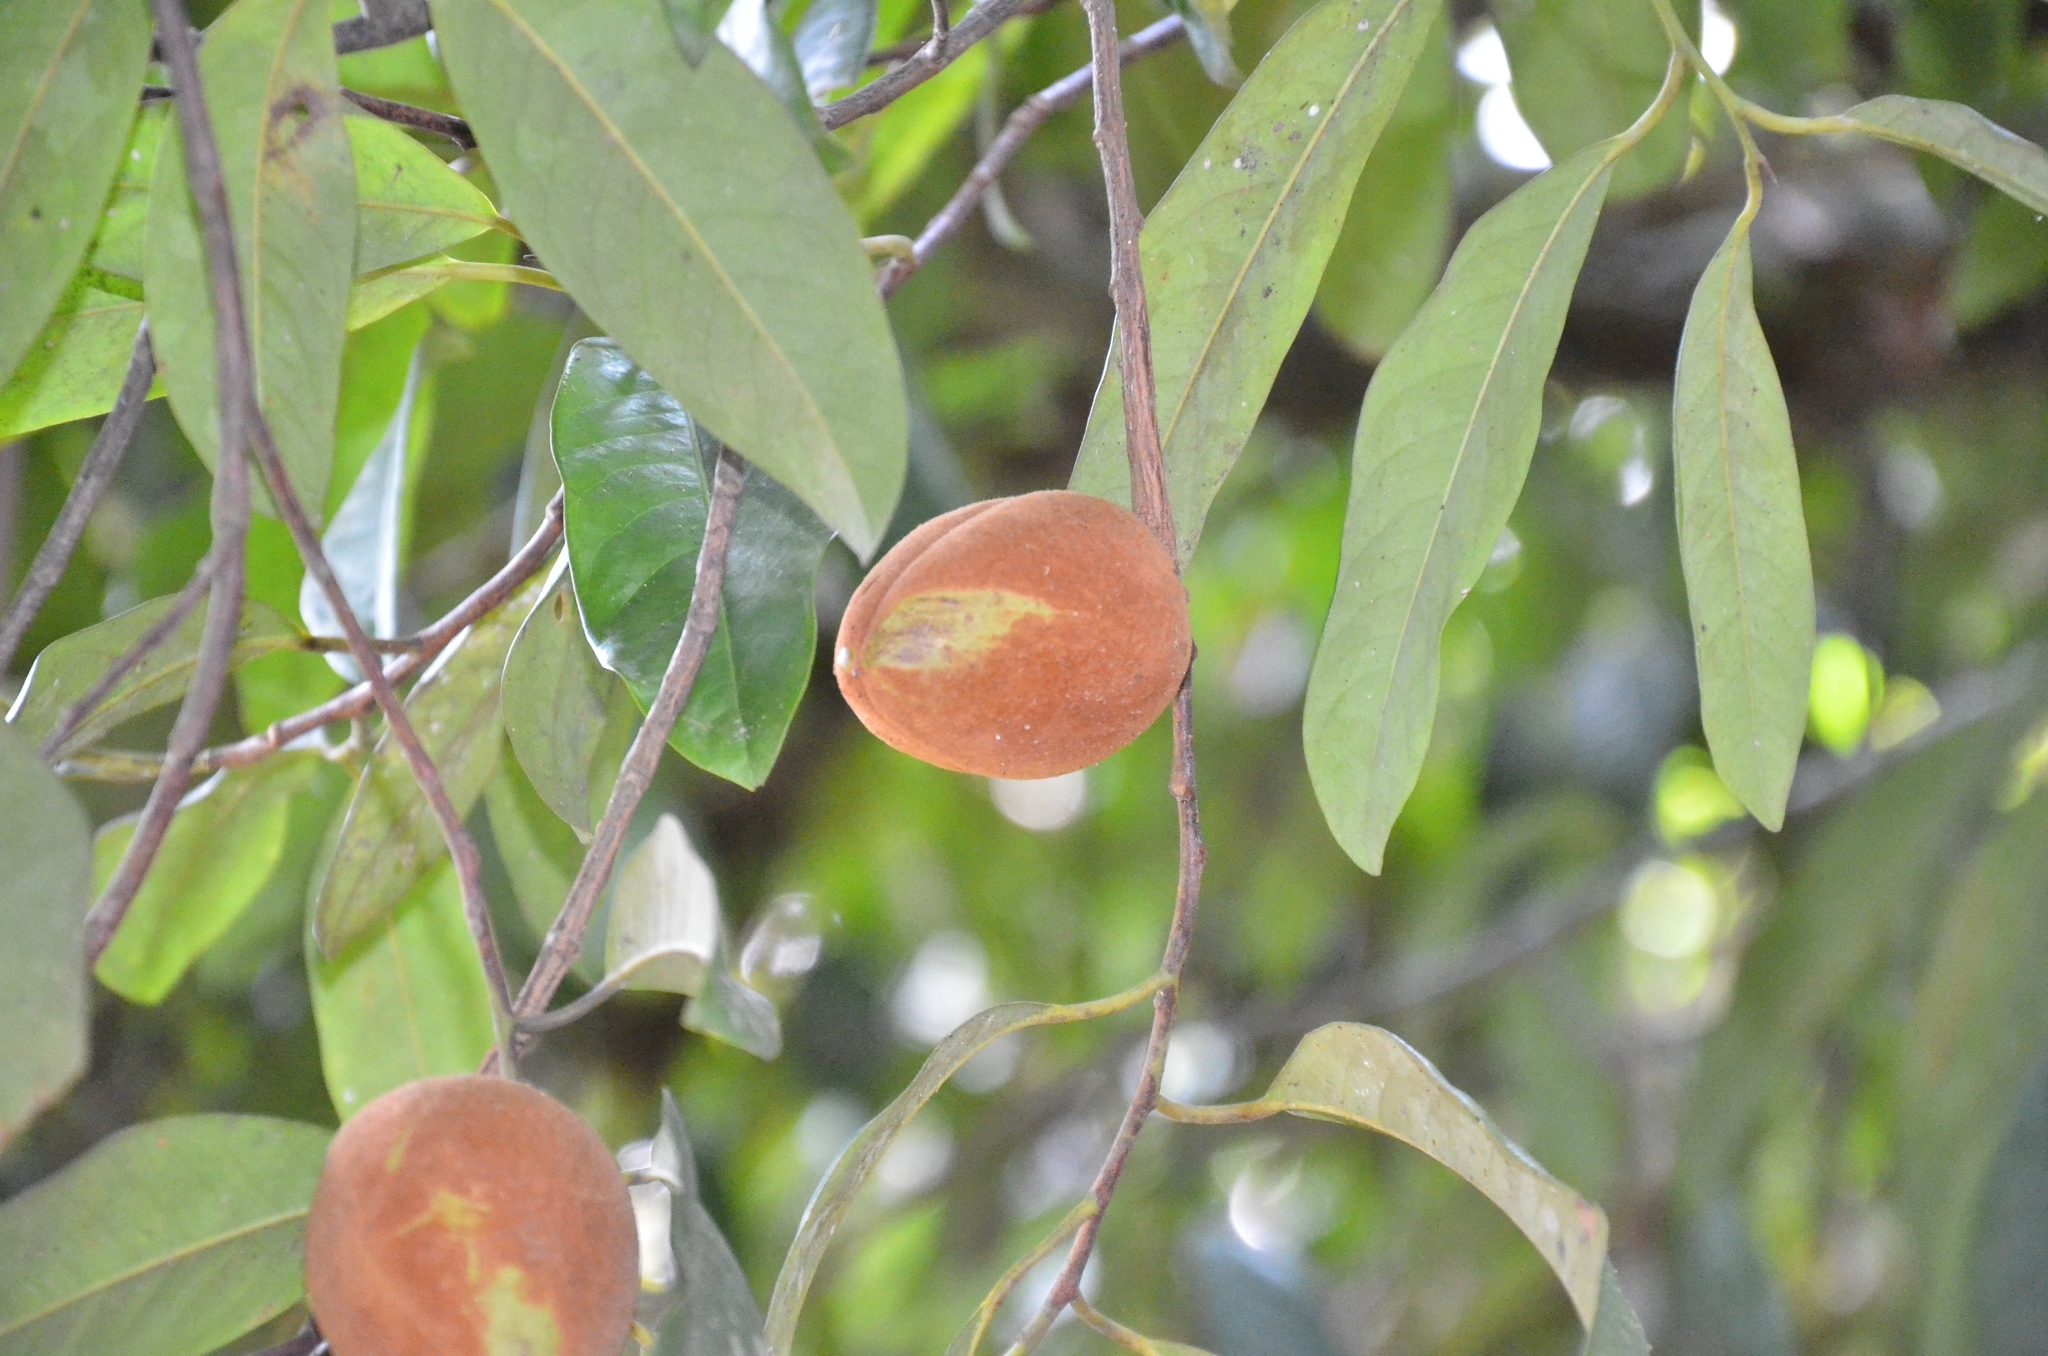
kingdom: Plantae
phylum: Tracheophyta
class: Magnoliopsida
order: Magnoliales
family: Myristicaceae
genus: Myristica
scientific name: Myristica malabarica
